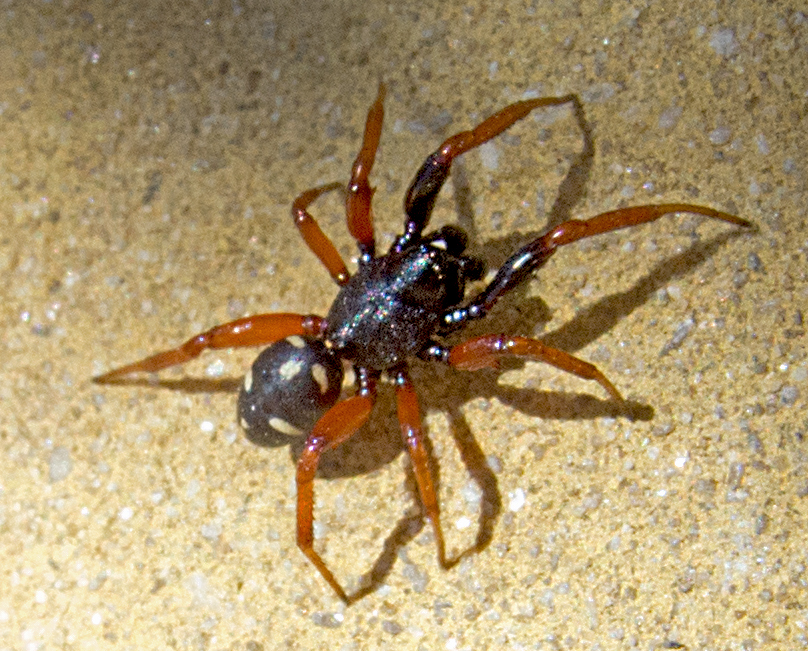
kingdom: Animalia
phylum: Arthropoda
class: Arachnida
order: Araneae
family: Theridiidae
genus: Asagena
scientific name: Asagena meridionalis
